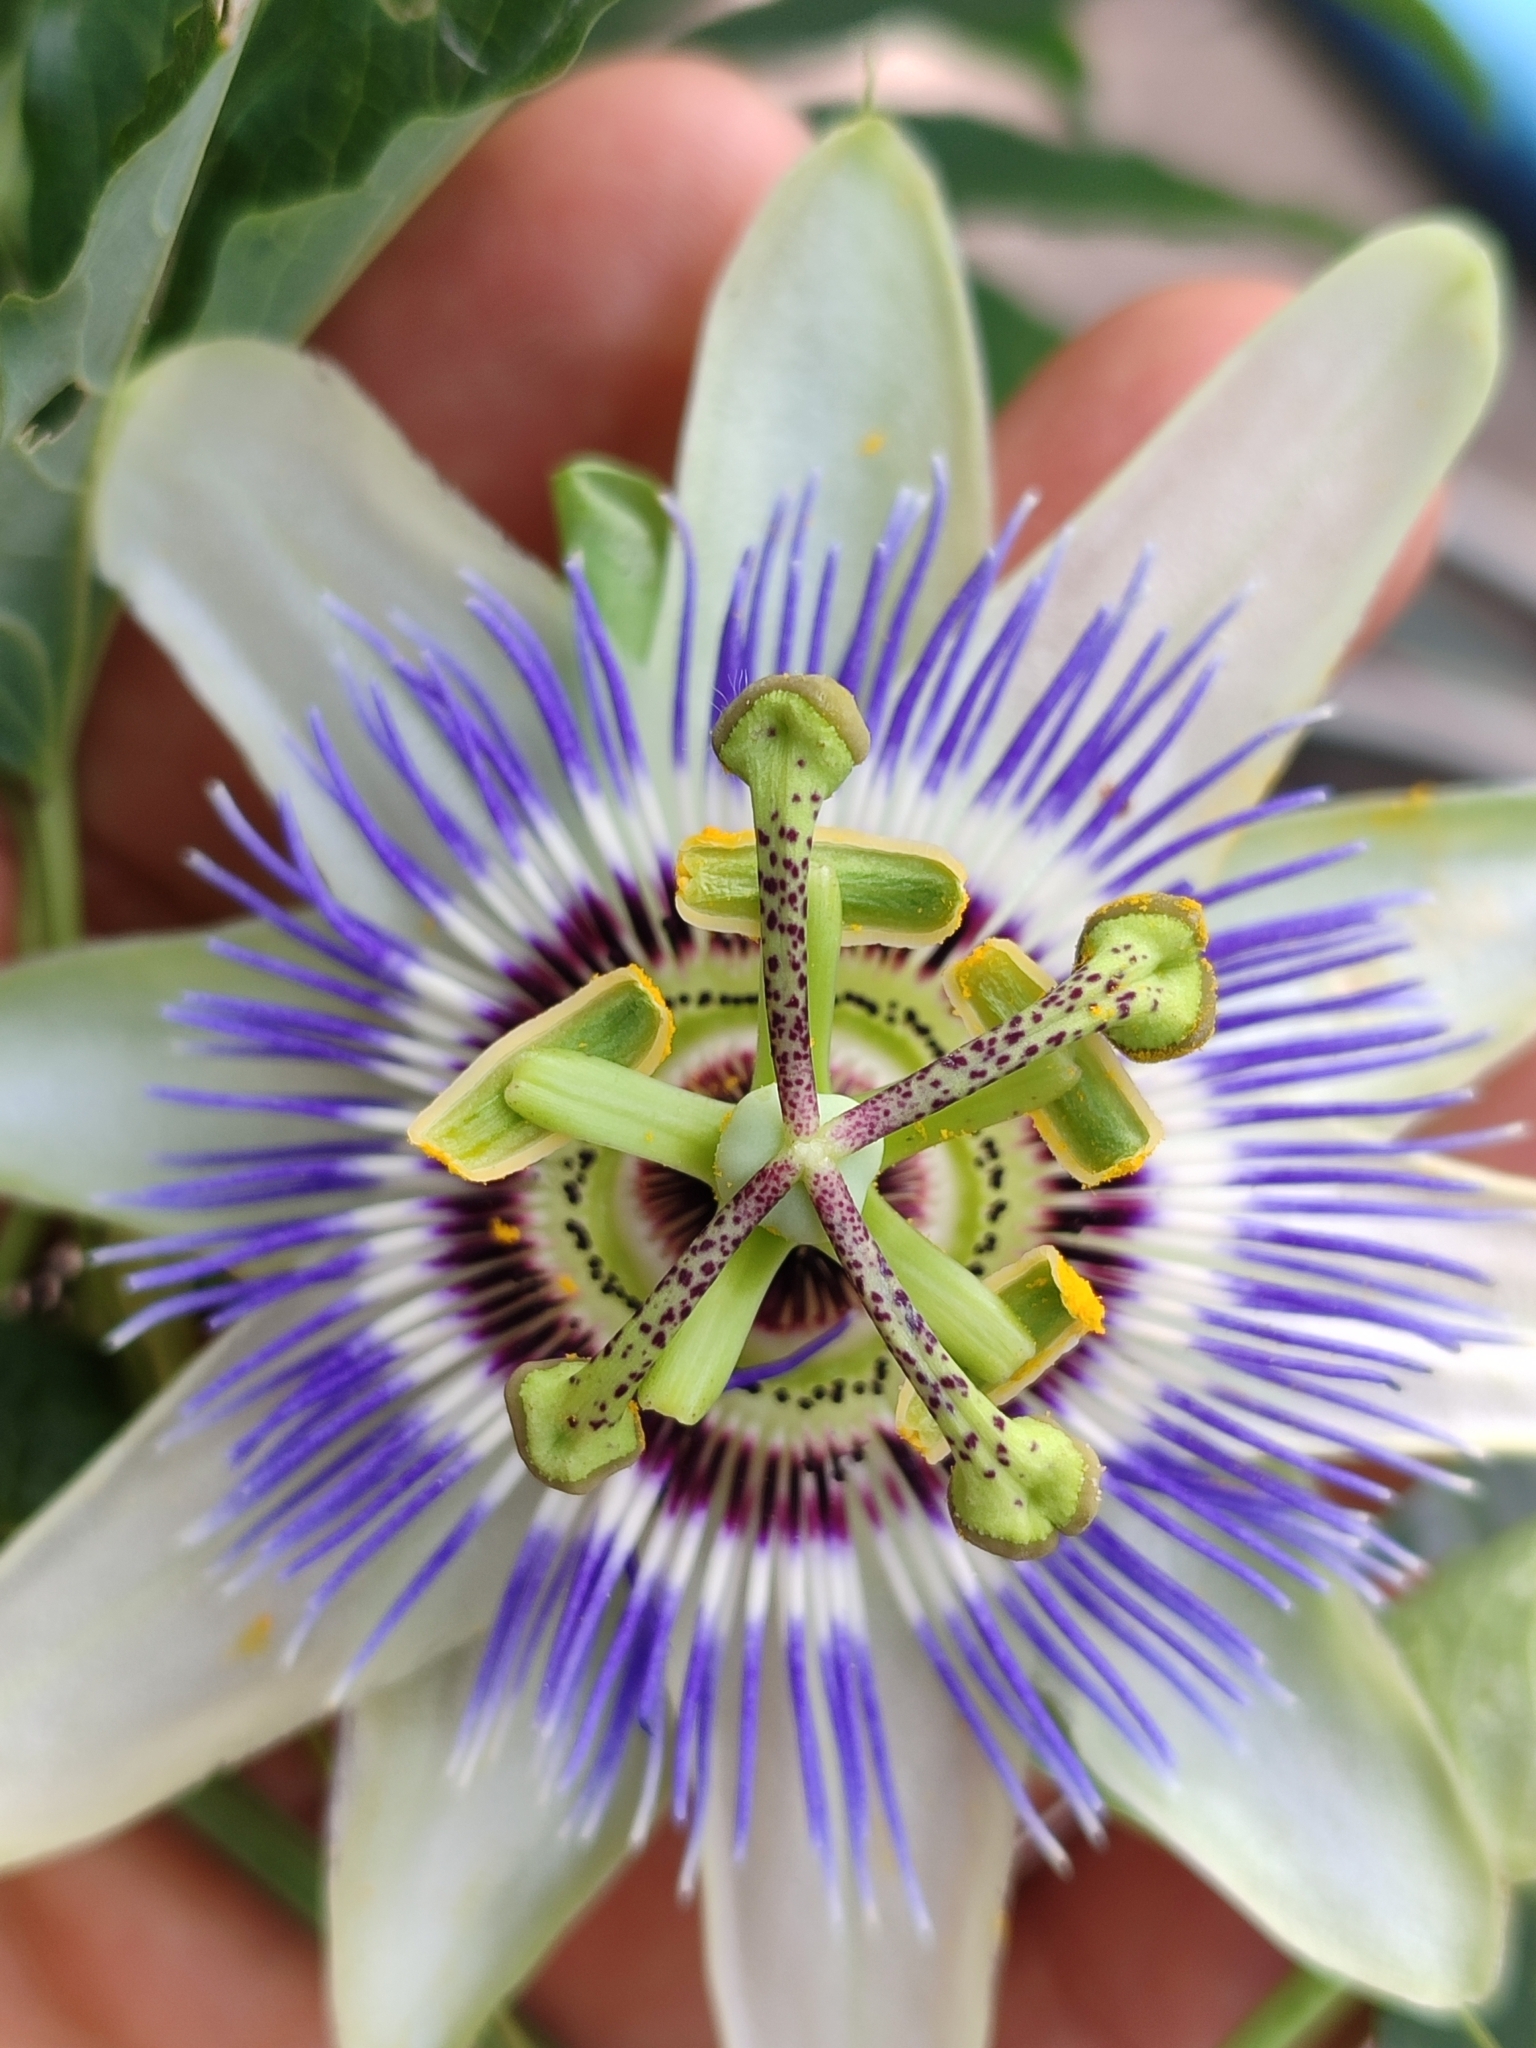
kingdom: Plantae
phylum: Tracheophyta
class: Magnoliopsida
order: Malpighiales
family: Passifloraceae
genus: Passiflora
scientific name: Passiflora caerulea
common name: Blue passionflower
